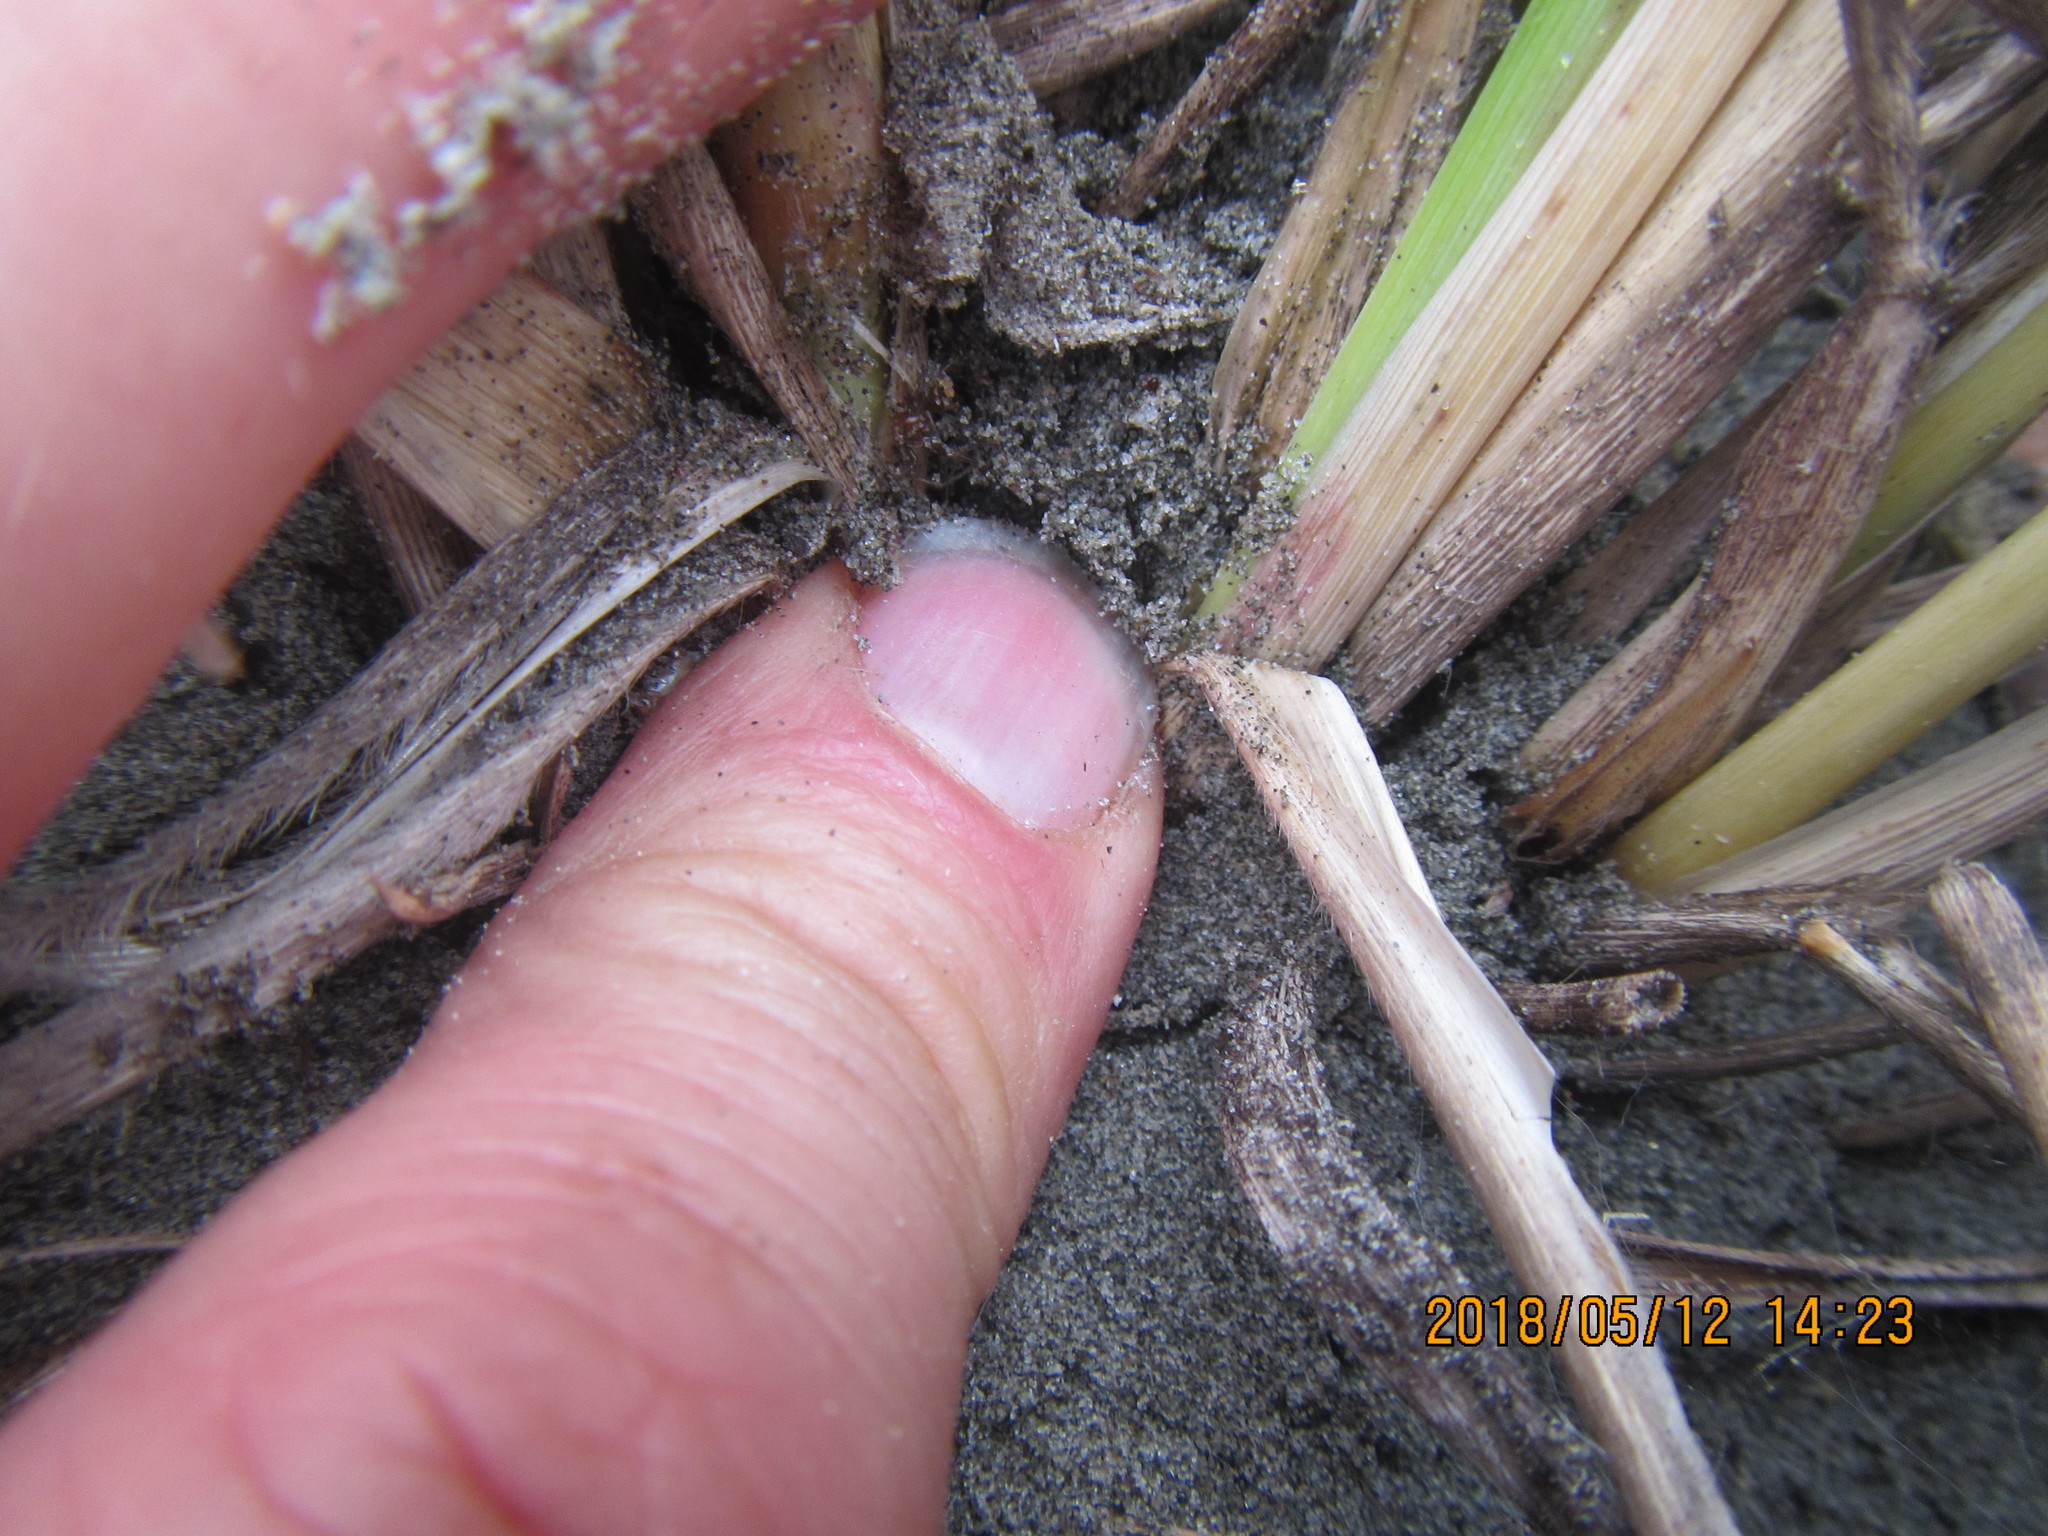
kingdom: Animalia
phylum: Arthropoda
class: Arachnida
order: Araneae
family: Theridiidae
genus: Steatoda
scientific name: Steatoda capensis
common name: Cobweb weaver
